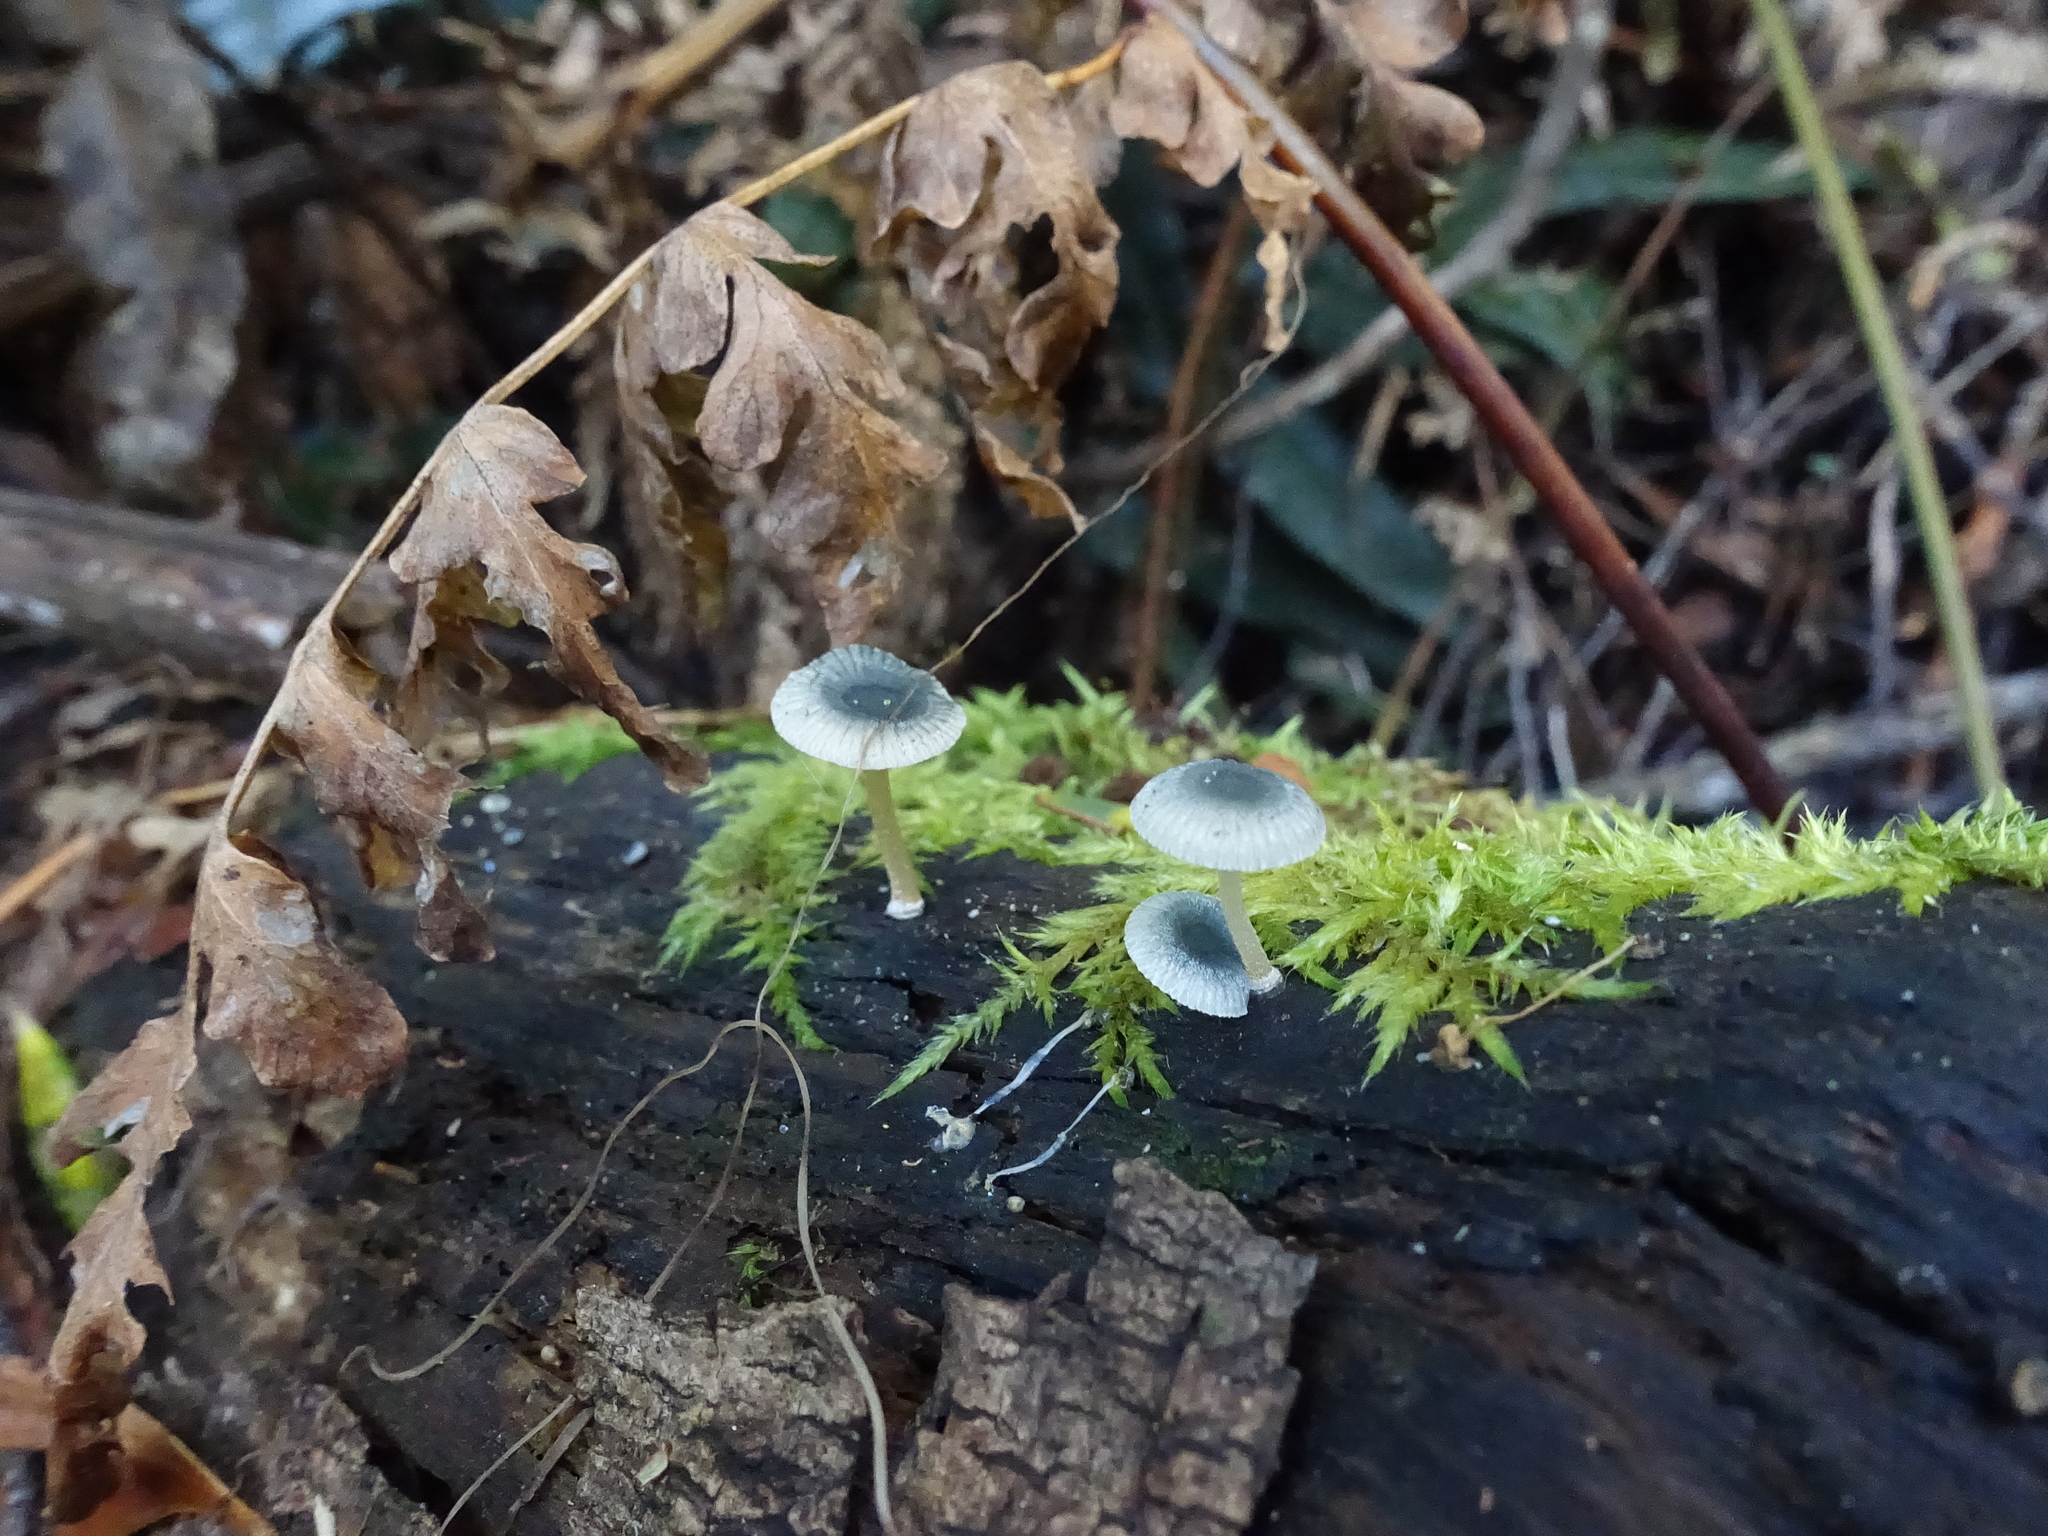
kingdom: Fungi
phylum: Basidiomycota
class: Agaricomycetes
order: Agaricales
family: Mycenaceae
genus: Mycena
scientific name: Mycena interrupta
